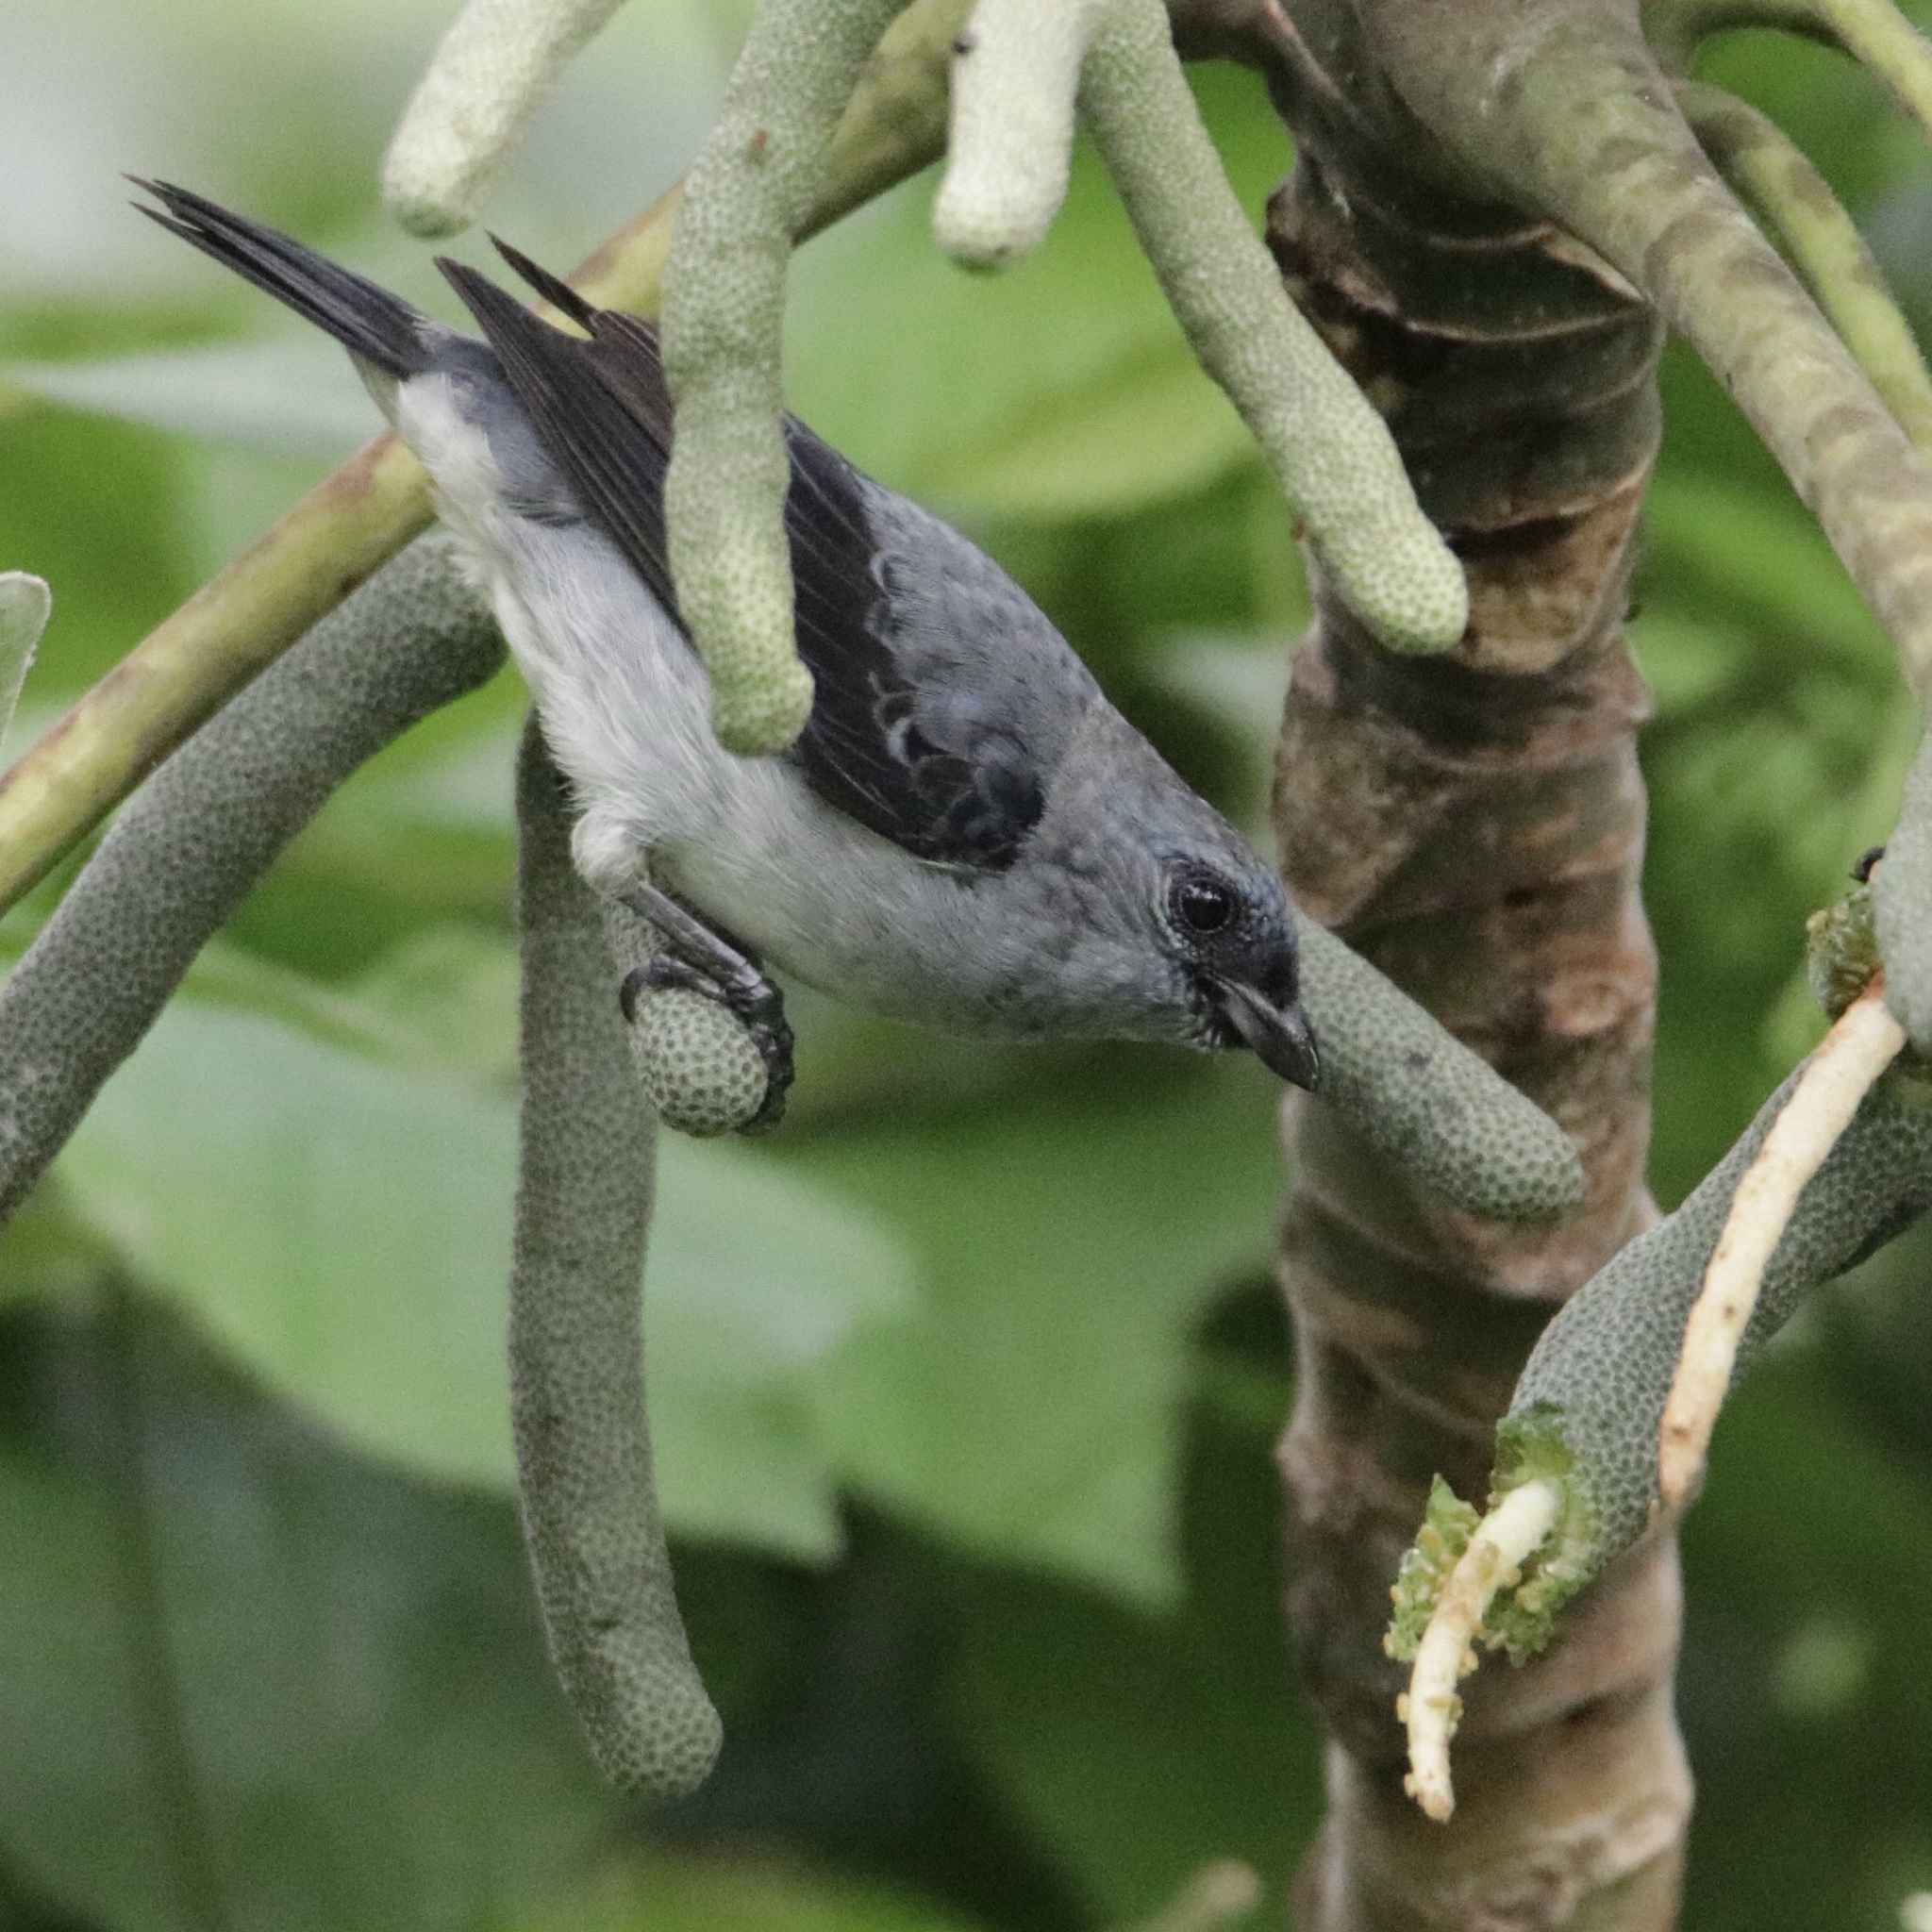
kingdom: Animalia
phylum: Chordata
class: Aves
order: Passeriformes
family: Thraupidae
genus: Tangara
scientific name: Tangara inornata
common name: Plain-colored tanager
